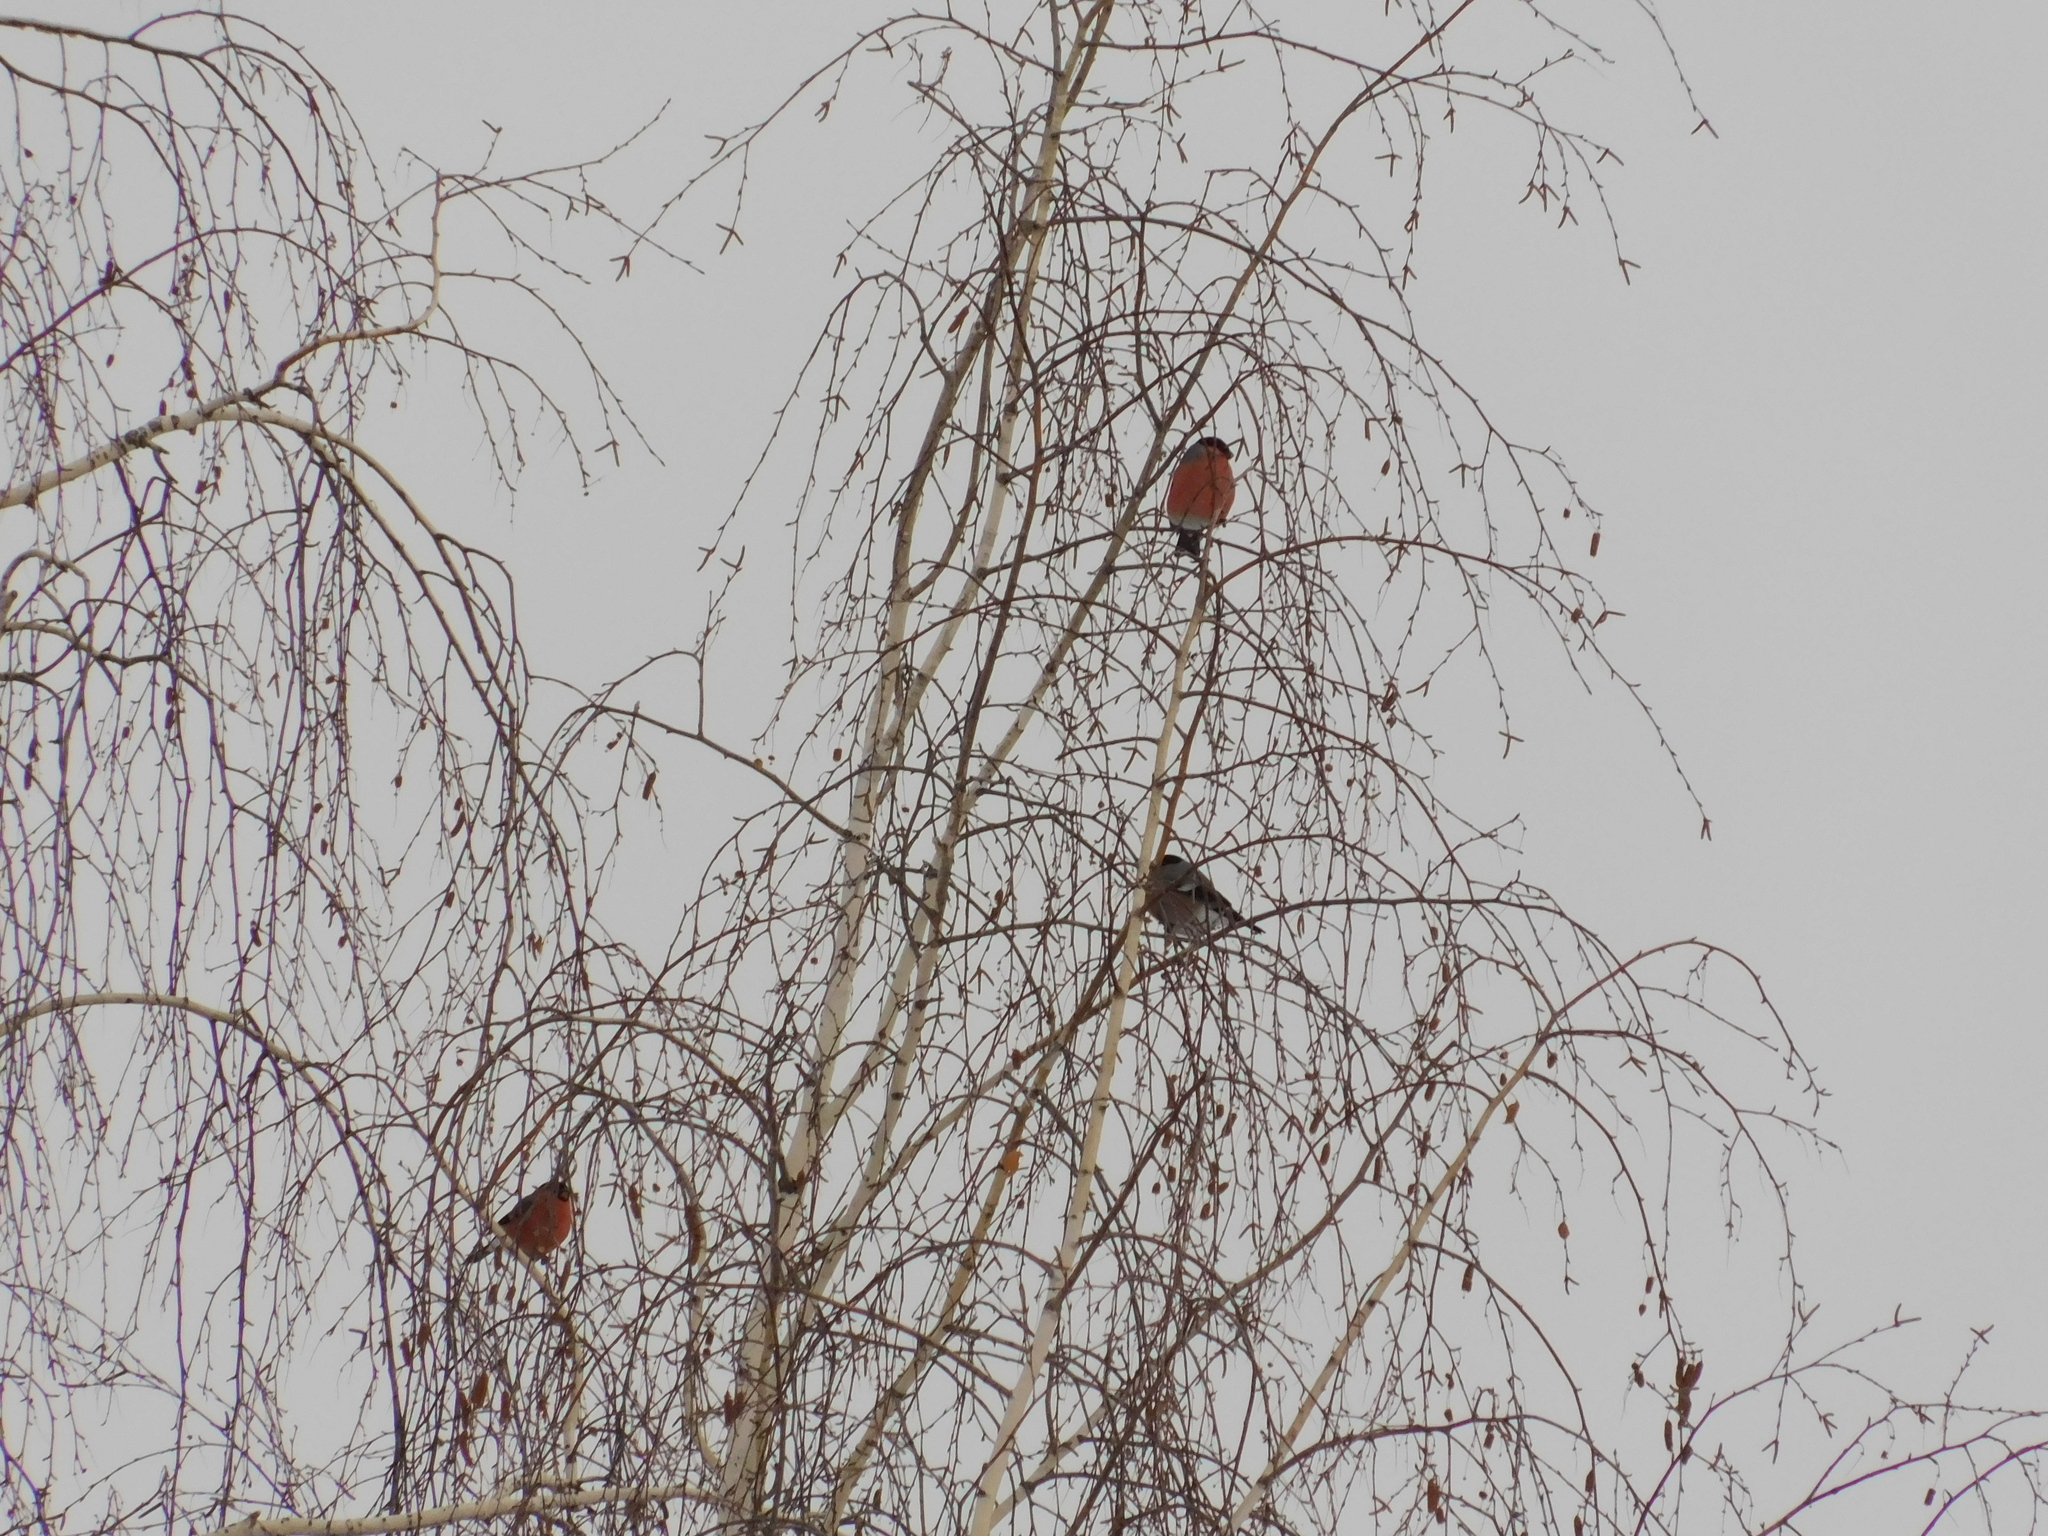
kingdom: Animalia
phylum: Chordata
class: Aves
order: Passeriformes
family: Fringillidae
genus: Pyrrhula
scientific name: Pyrrhula pyrrhula
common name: Eurasian bullfinch
